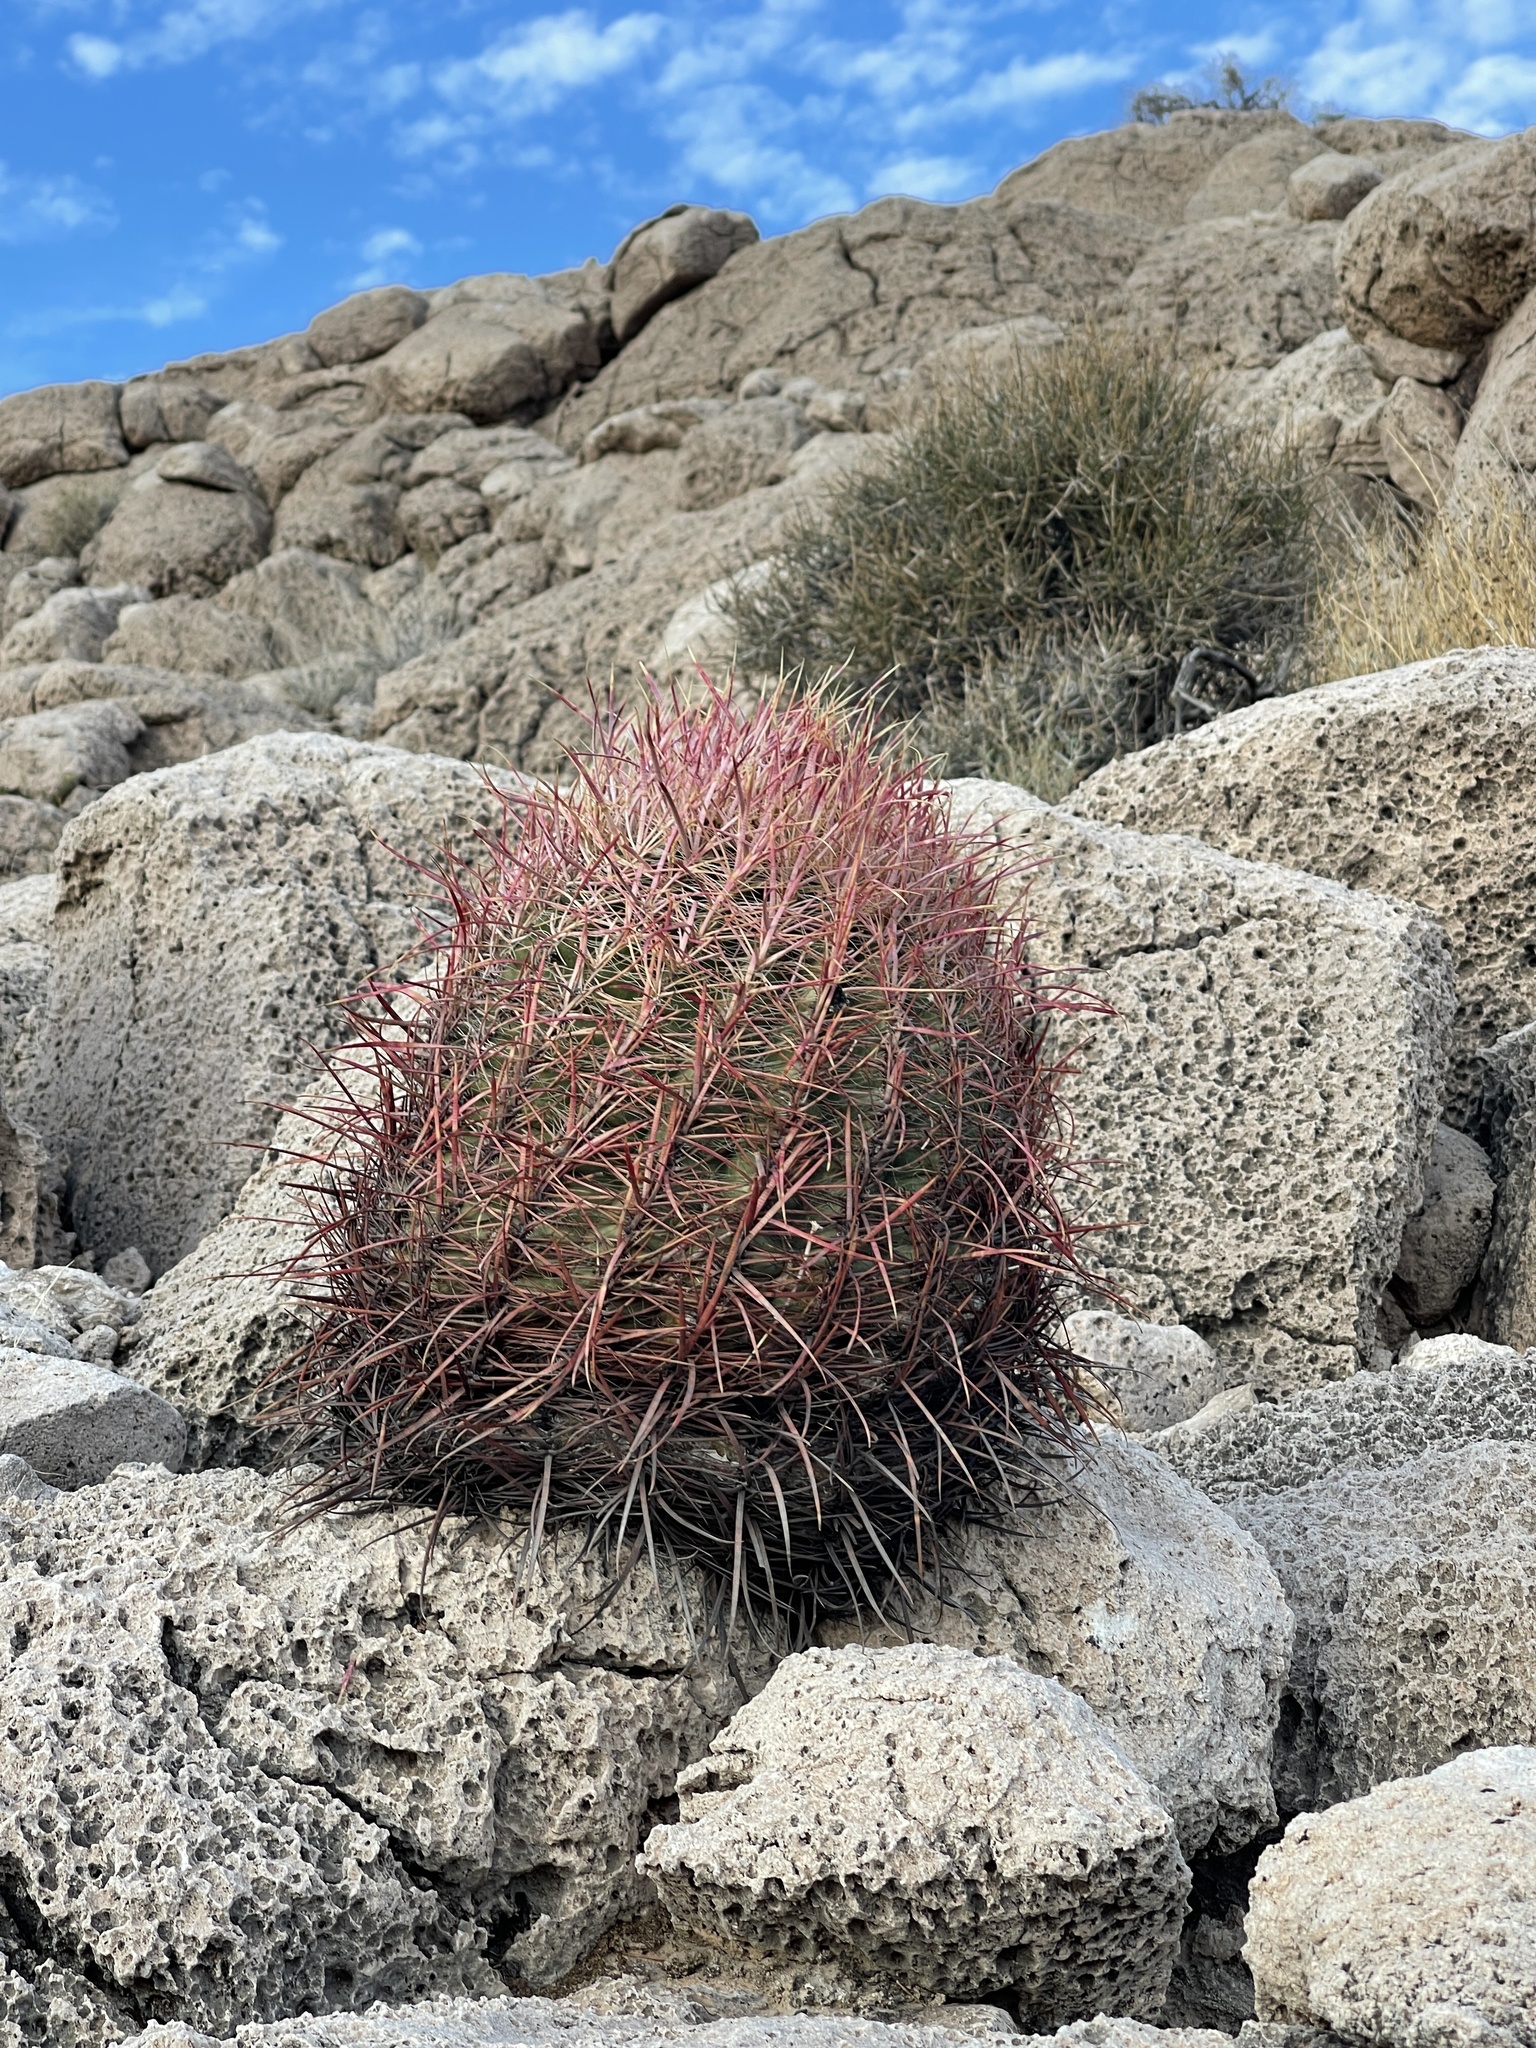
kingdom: Plantae
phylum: Tracheophyta
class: Magnoliopsida
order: Caryophyllales
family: Cactaceae
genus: Ferocactus
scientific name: Ferocactus cylindraceus
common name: California barrel cactus
